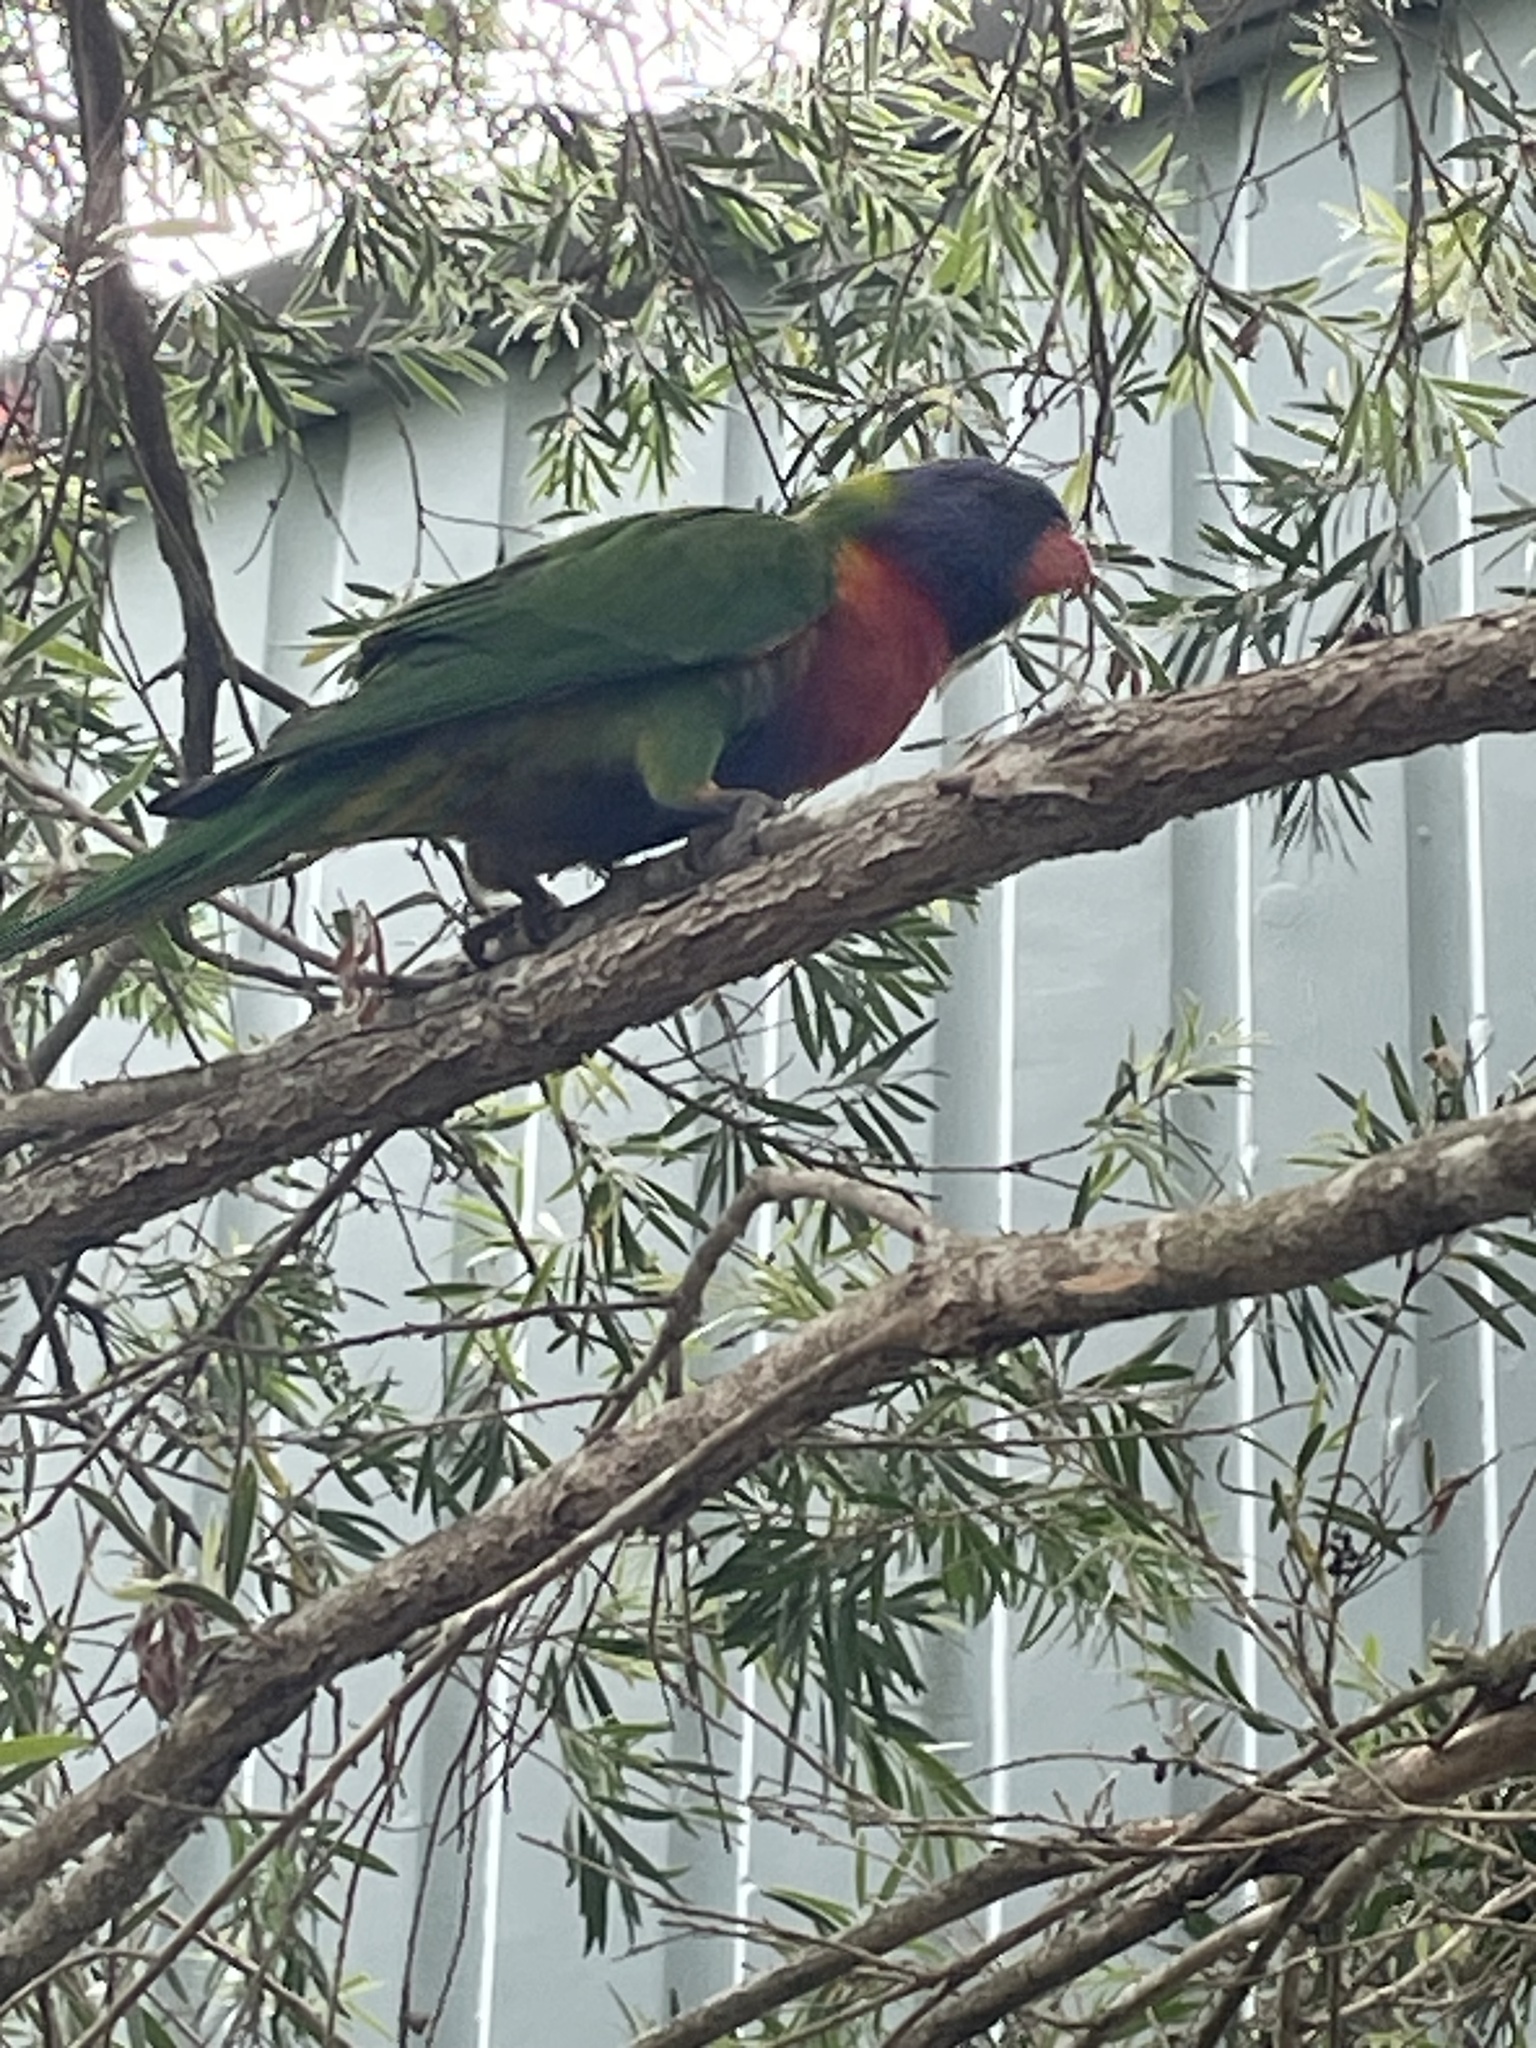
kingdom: Animalia
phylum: Chordata
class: Aves
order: Psittaciformes
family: Psittacidae
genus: Trichoglossus
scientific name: Trichoglossus haematodus
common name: Coconut lorikeet
